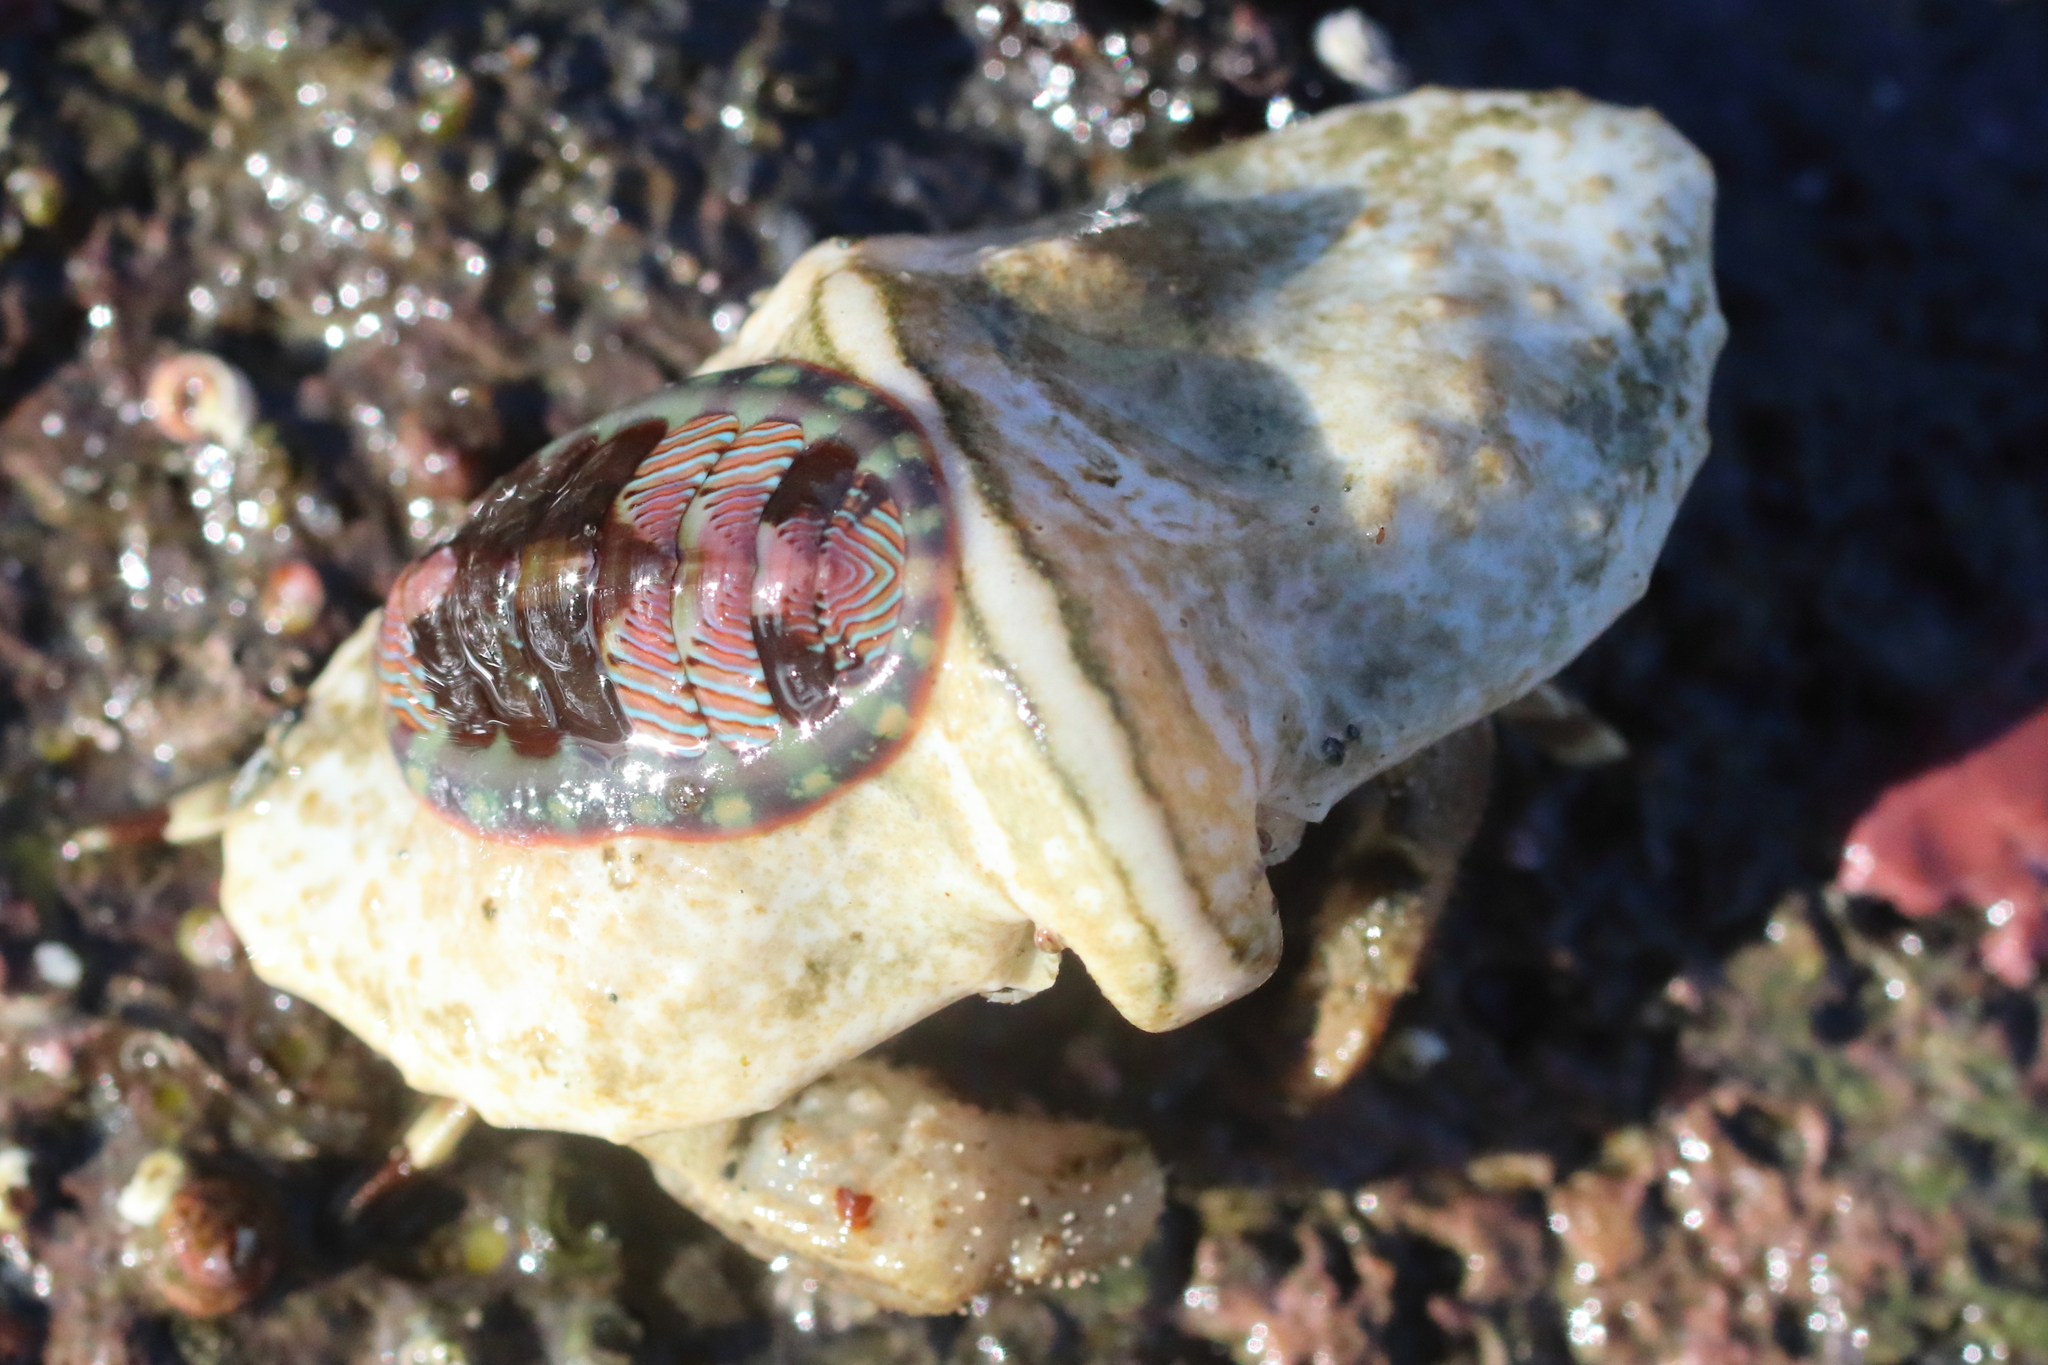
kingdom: Animalia
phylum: Arthropoda
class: Malacostraca
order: Decapoda
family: Lithodidae
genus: Cryptolithodes
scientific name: Cryptolithodes typicus
